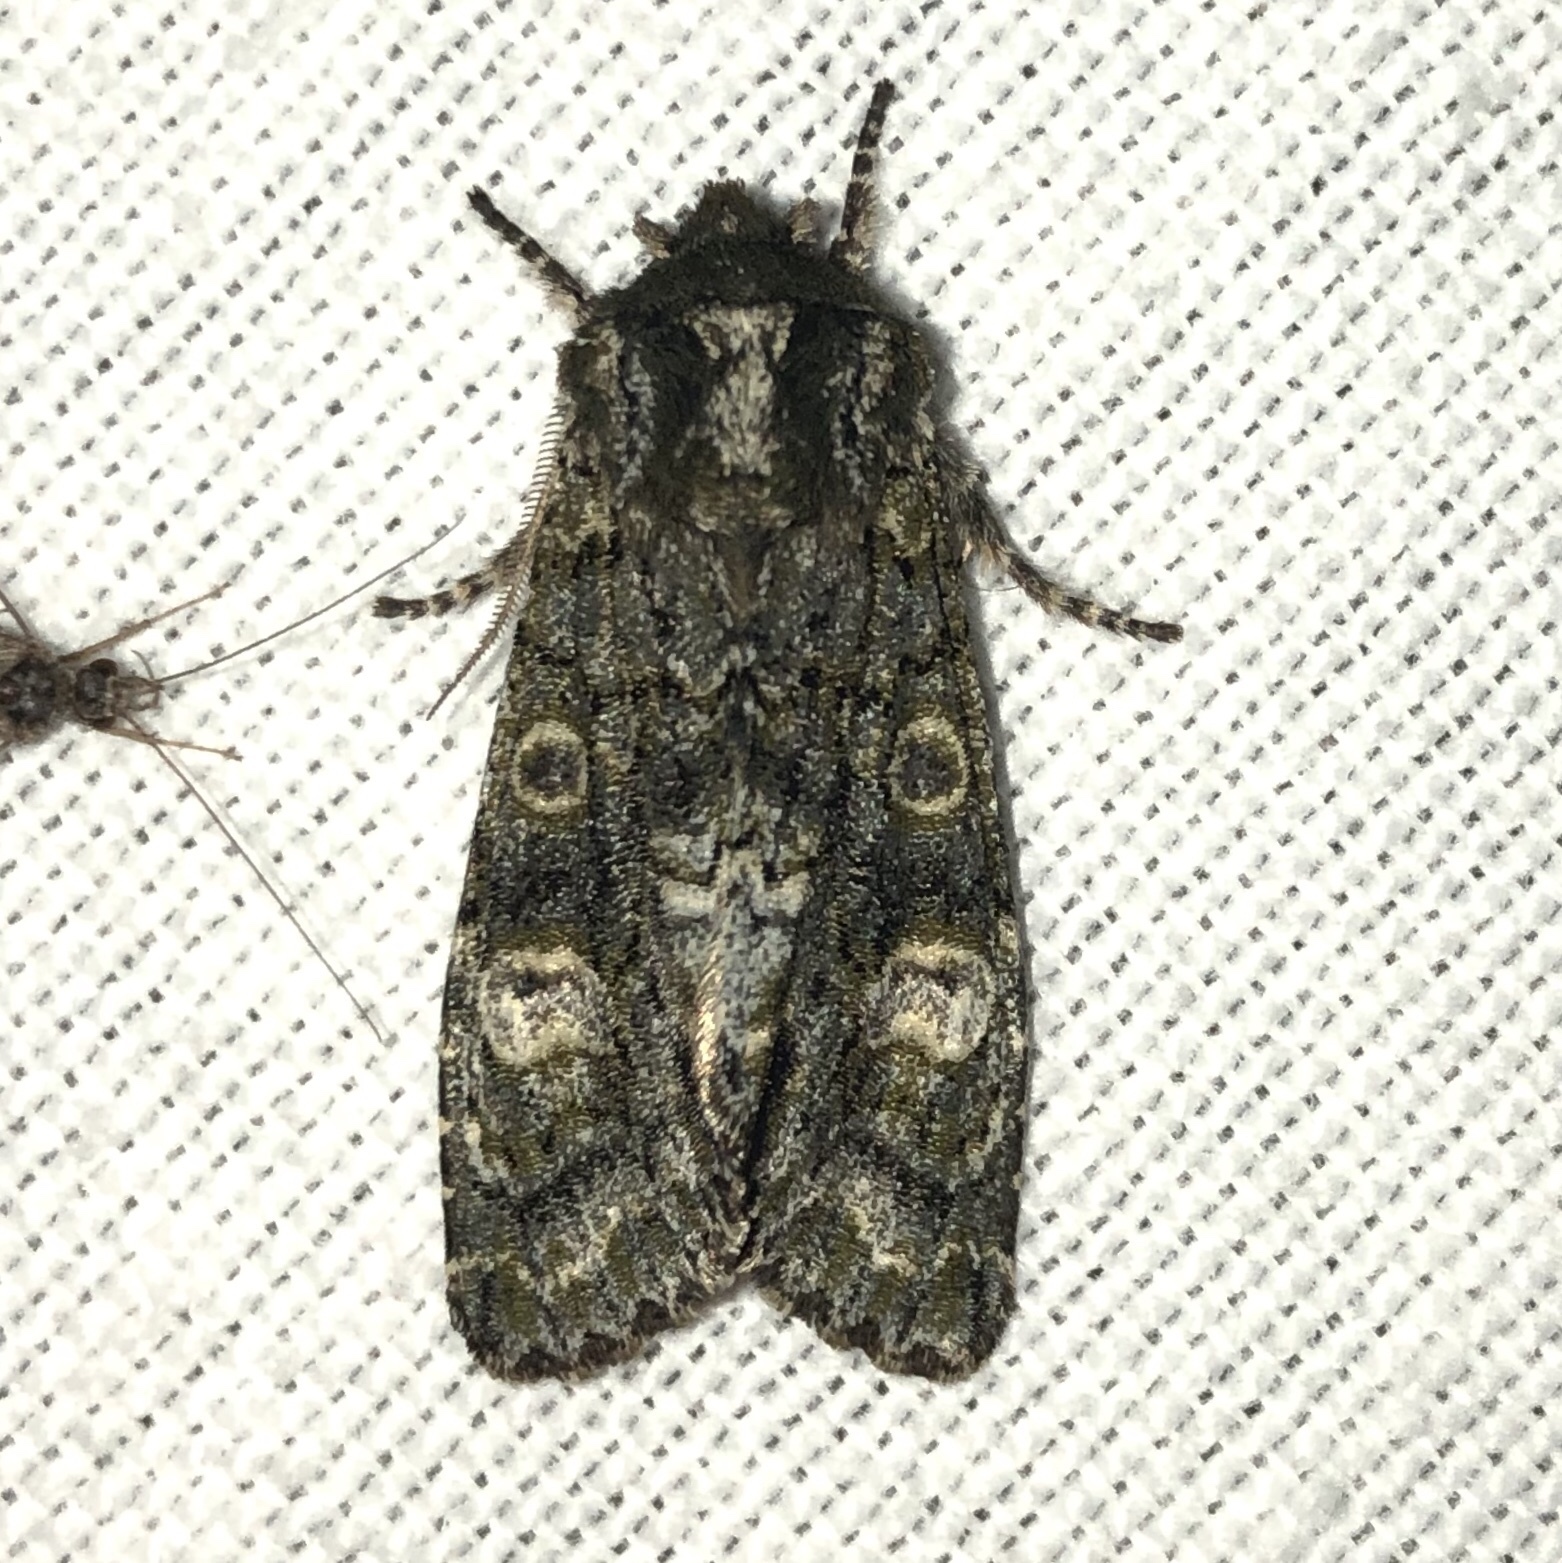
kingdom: Animalia
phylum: Arthropoda
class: Insecta
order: Lepidoptera
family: Noctuidae
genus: Psaphida
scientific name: Psaphida grotei
